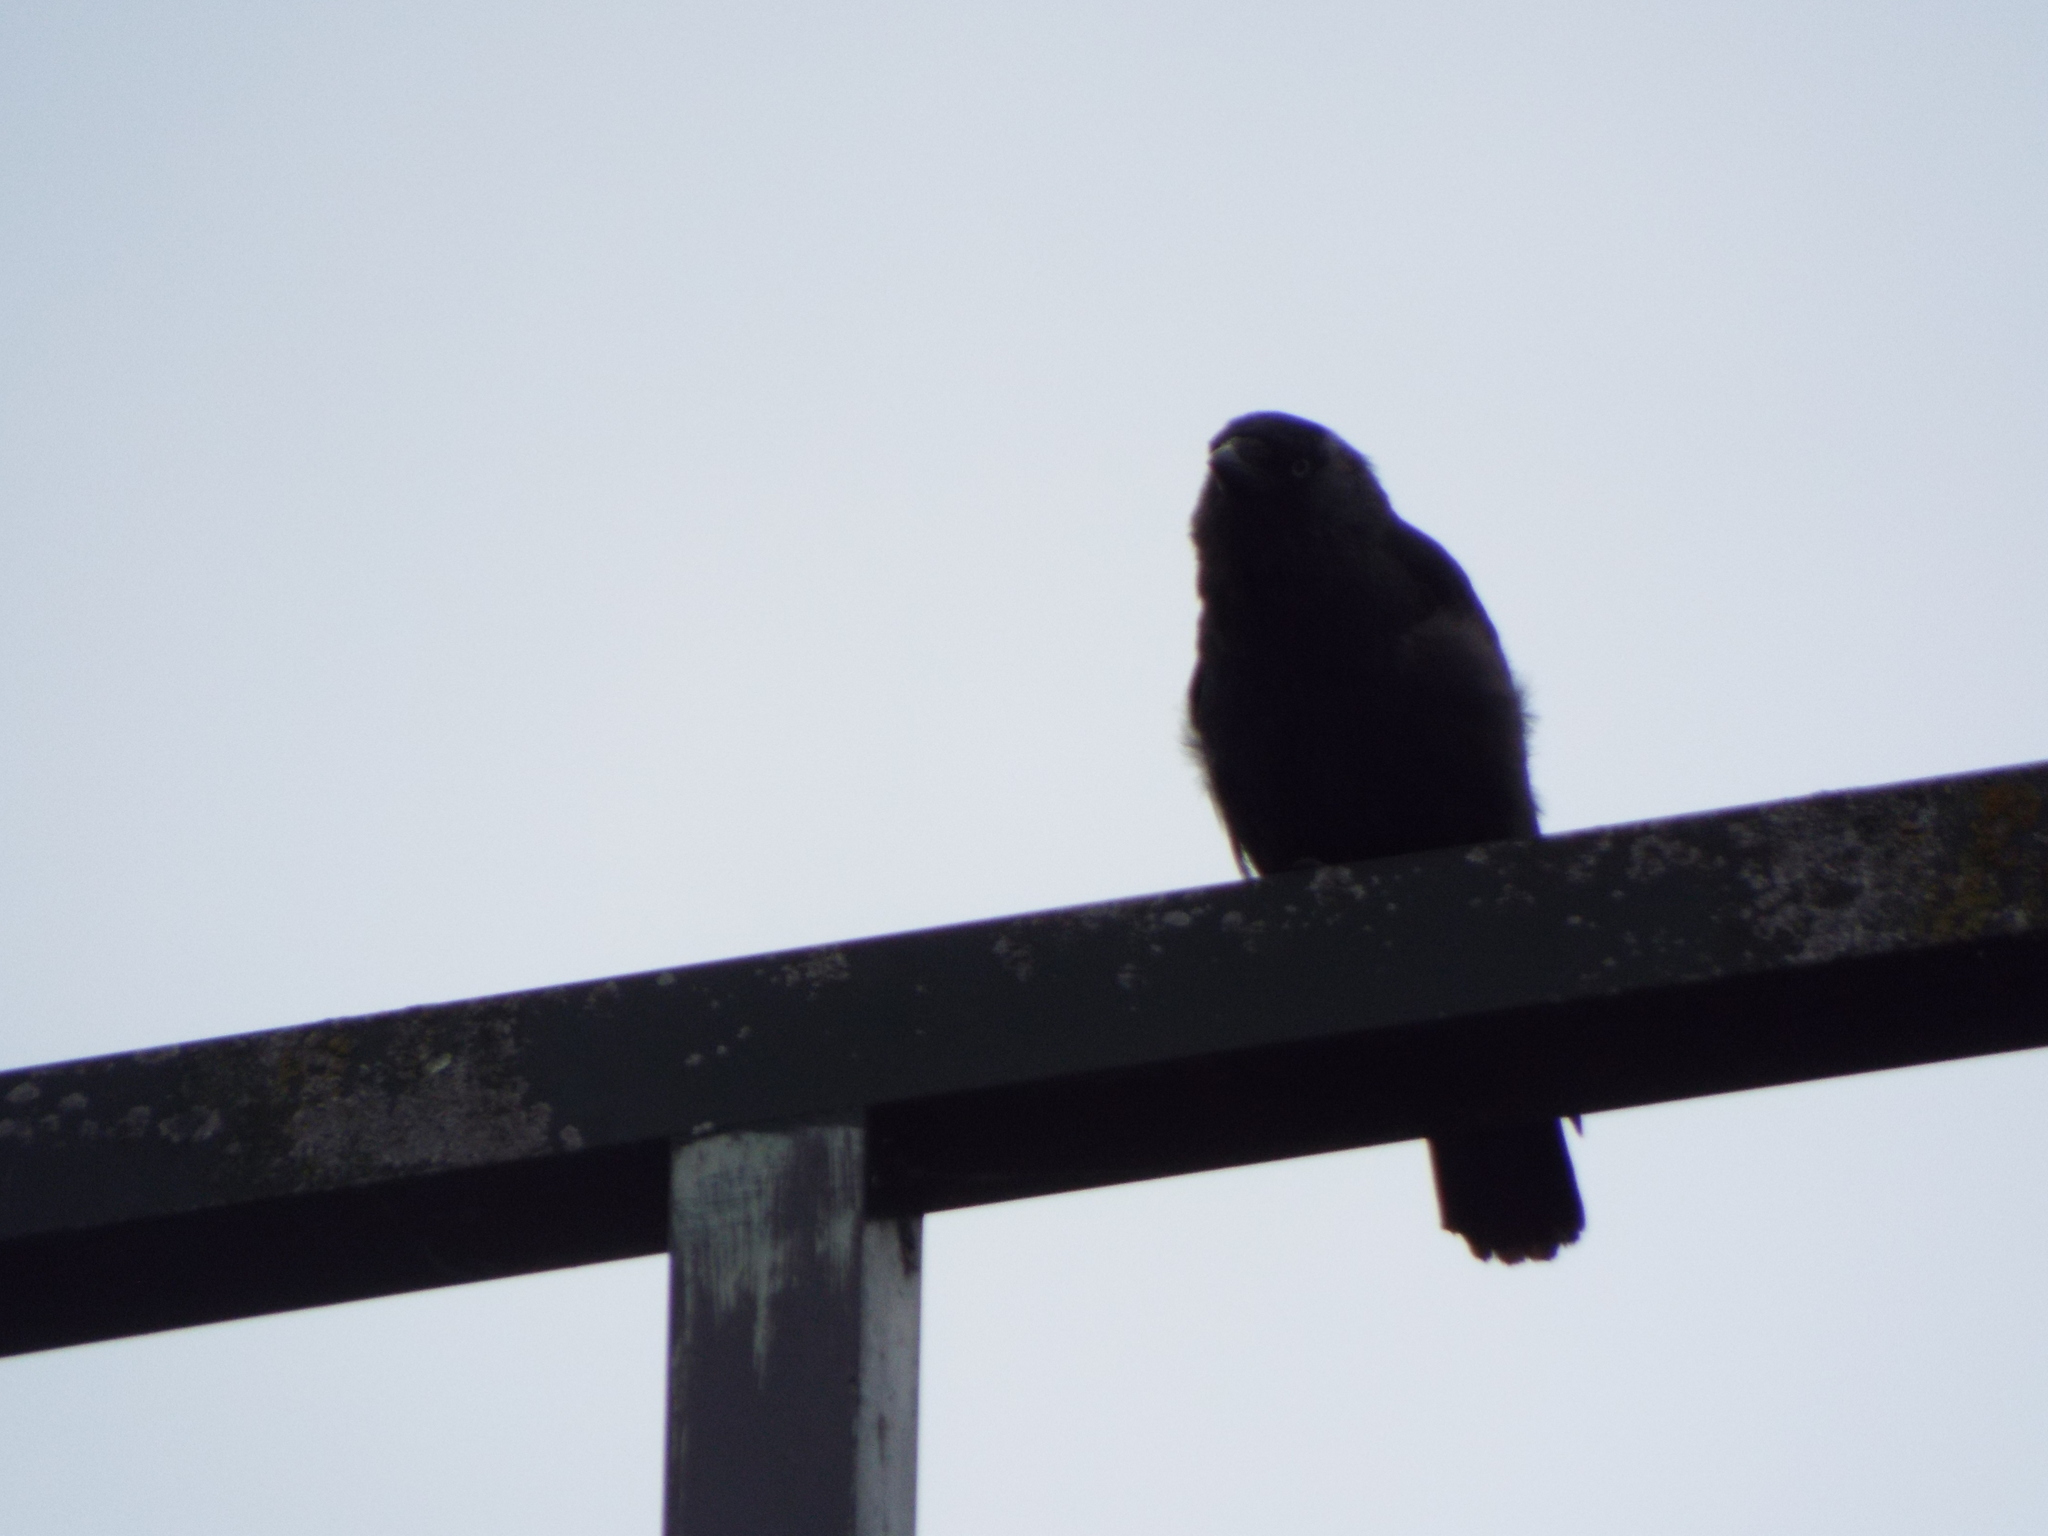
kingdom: Animalia
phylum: Chordata
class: Aves
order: Passeriformes
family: Corvidae
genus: Coloeus
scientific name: Coloeus monedula
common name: Western jackdaw
